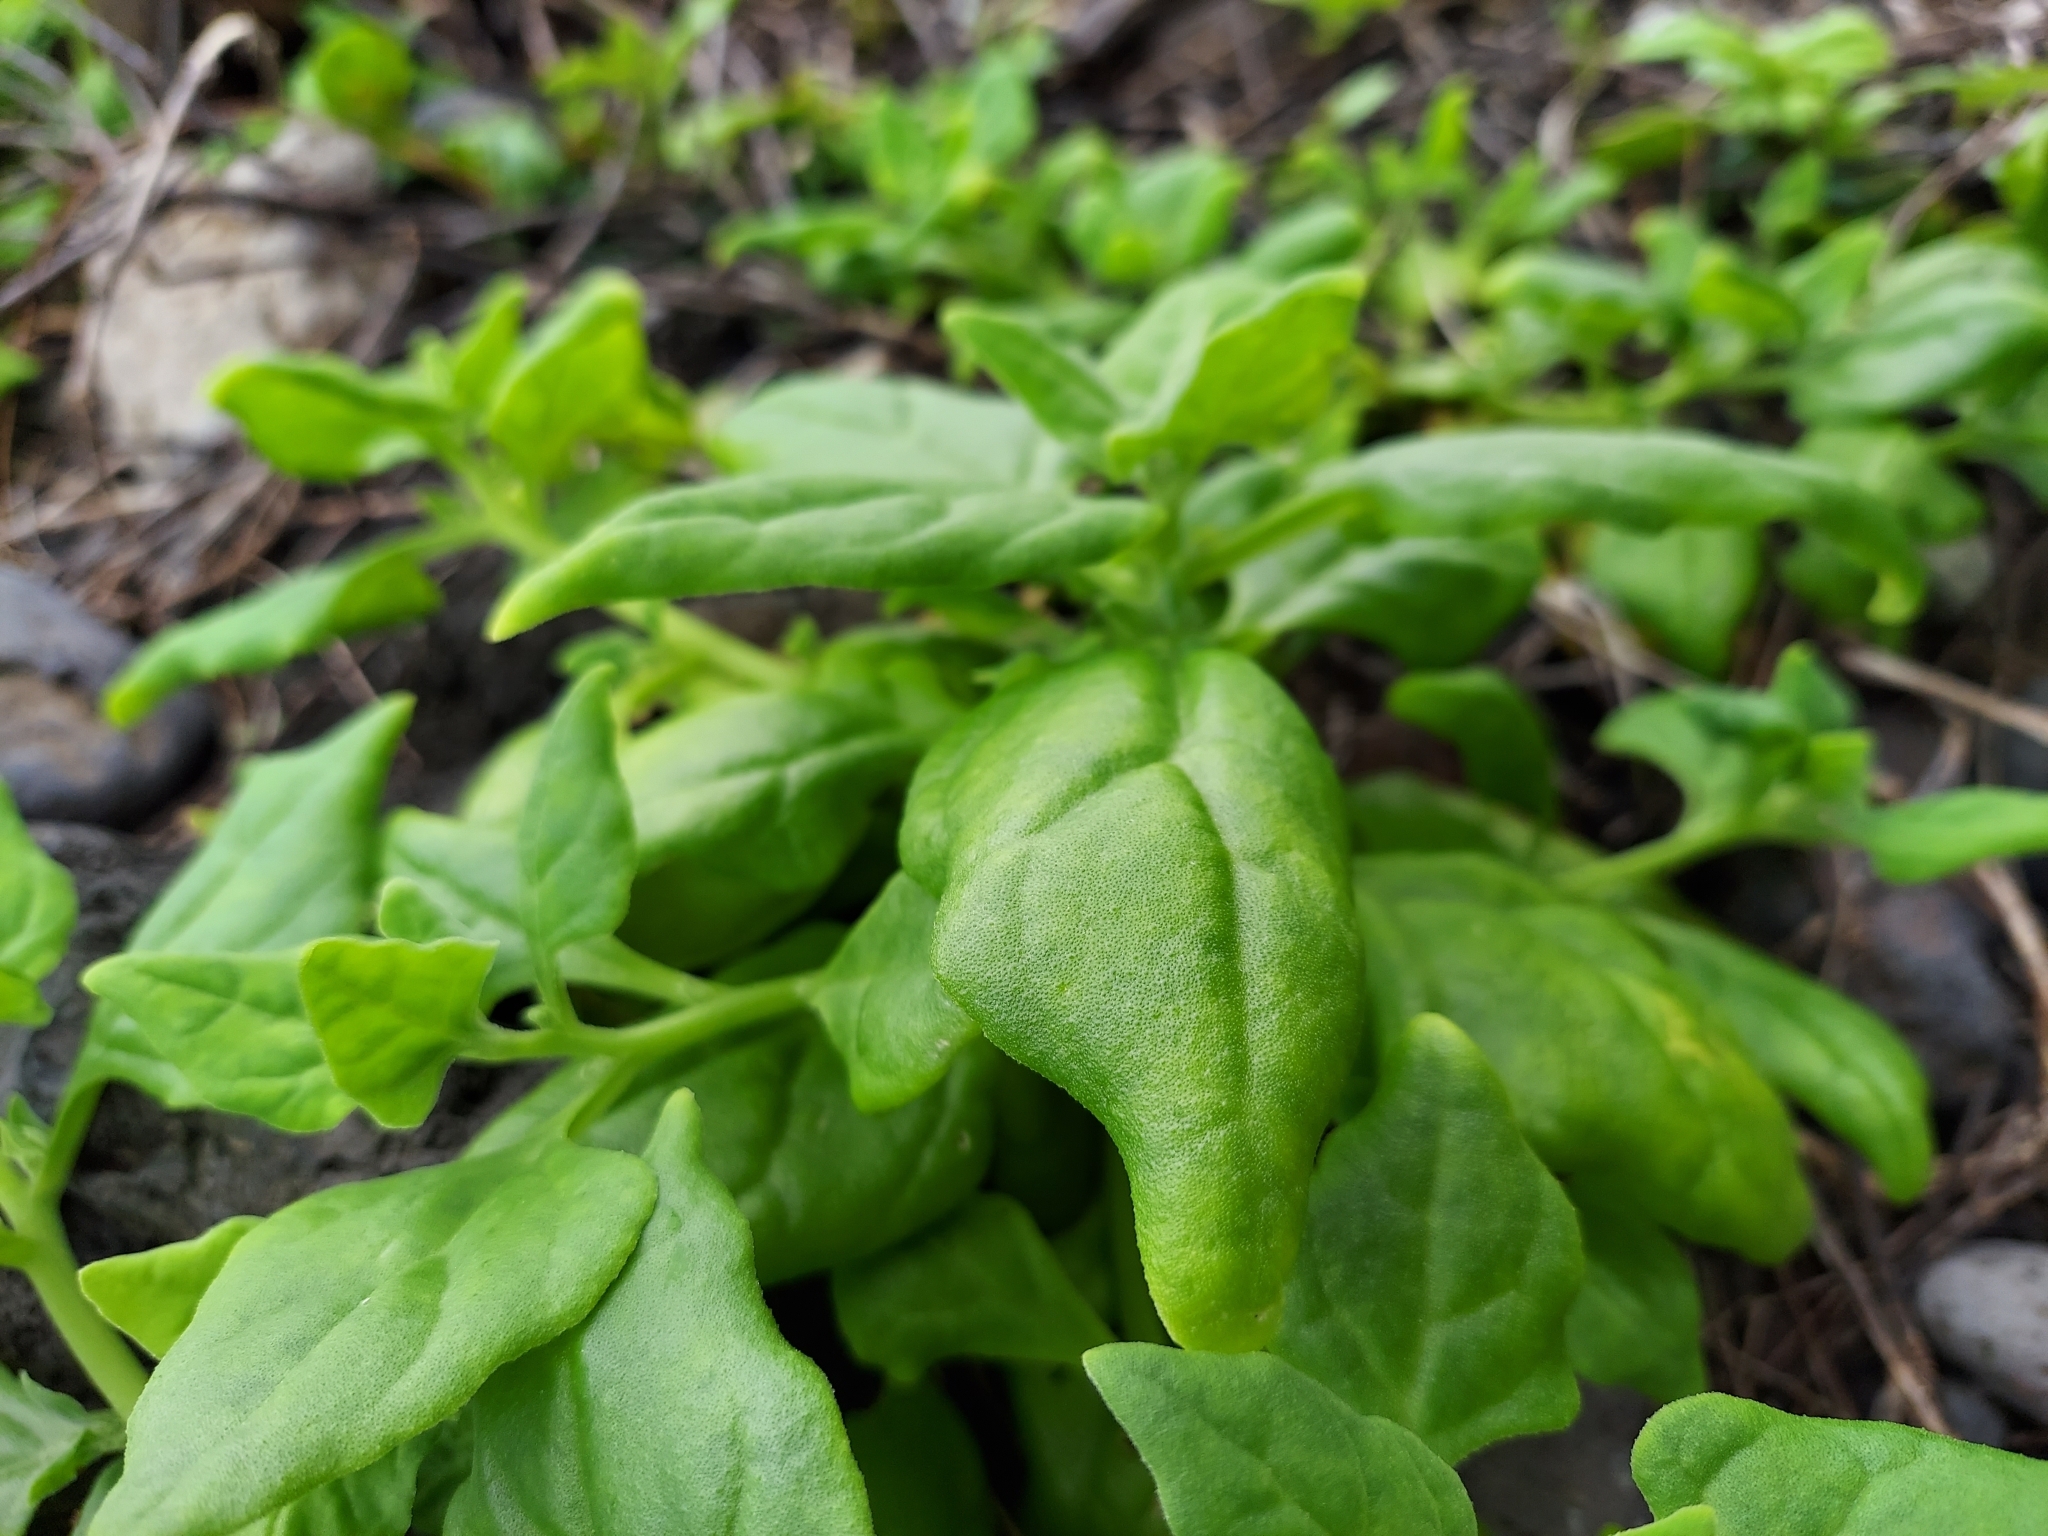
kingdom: Plantae
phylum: Tracheophyta
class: Magnoliopsida
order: Caryophyllales
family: Aizoaceae
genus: Tetragonia
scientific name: Tetragonia tetragonoides
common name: New zealand-spinach
